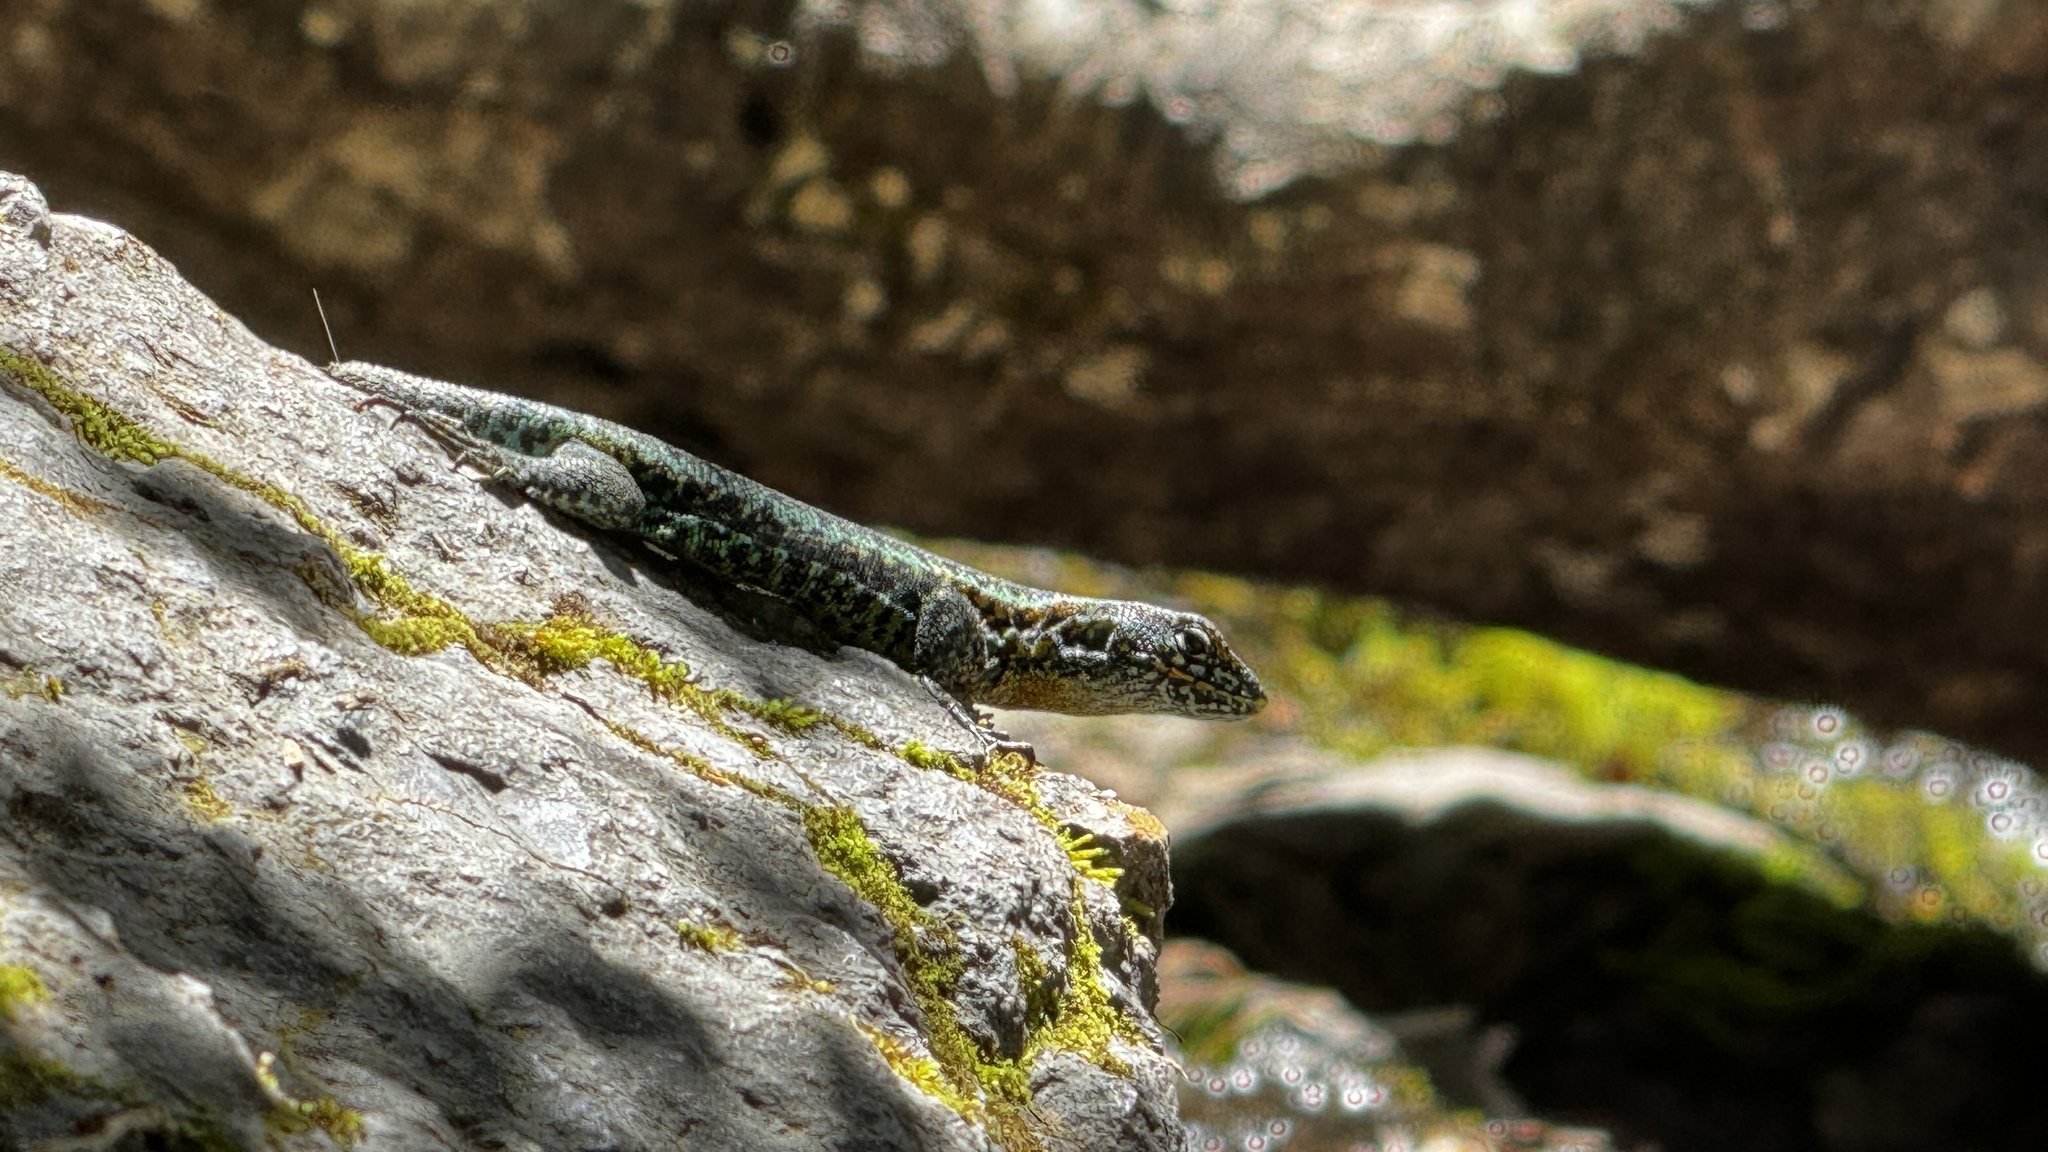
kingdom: Animalia
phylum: Chordata
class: Squamata
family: Liolaemidae
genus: Liolaemus
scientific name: Liolaemus pictus
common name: Painted tree iguana
